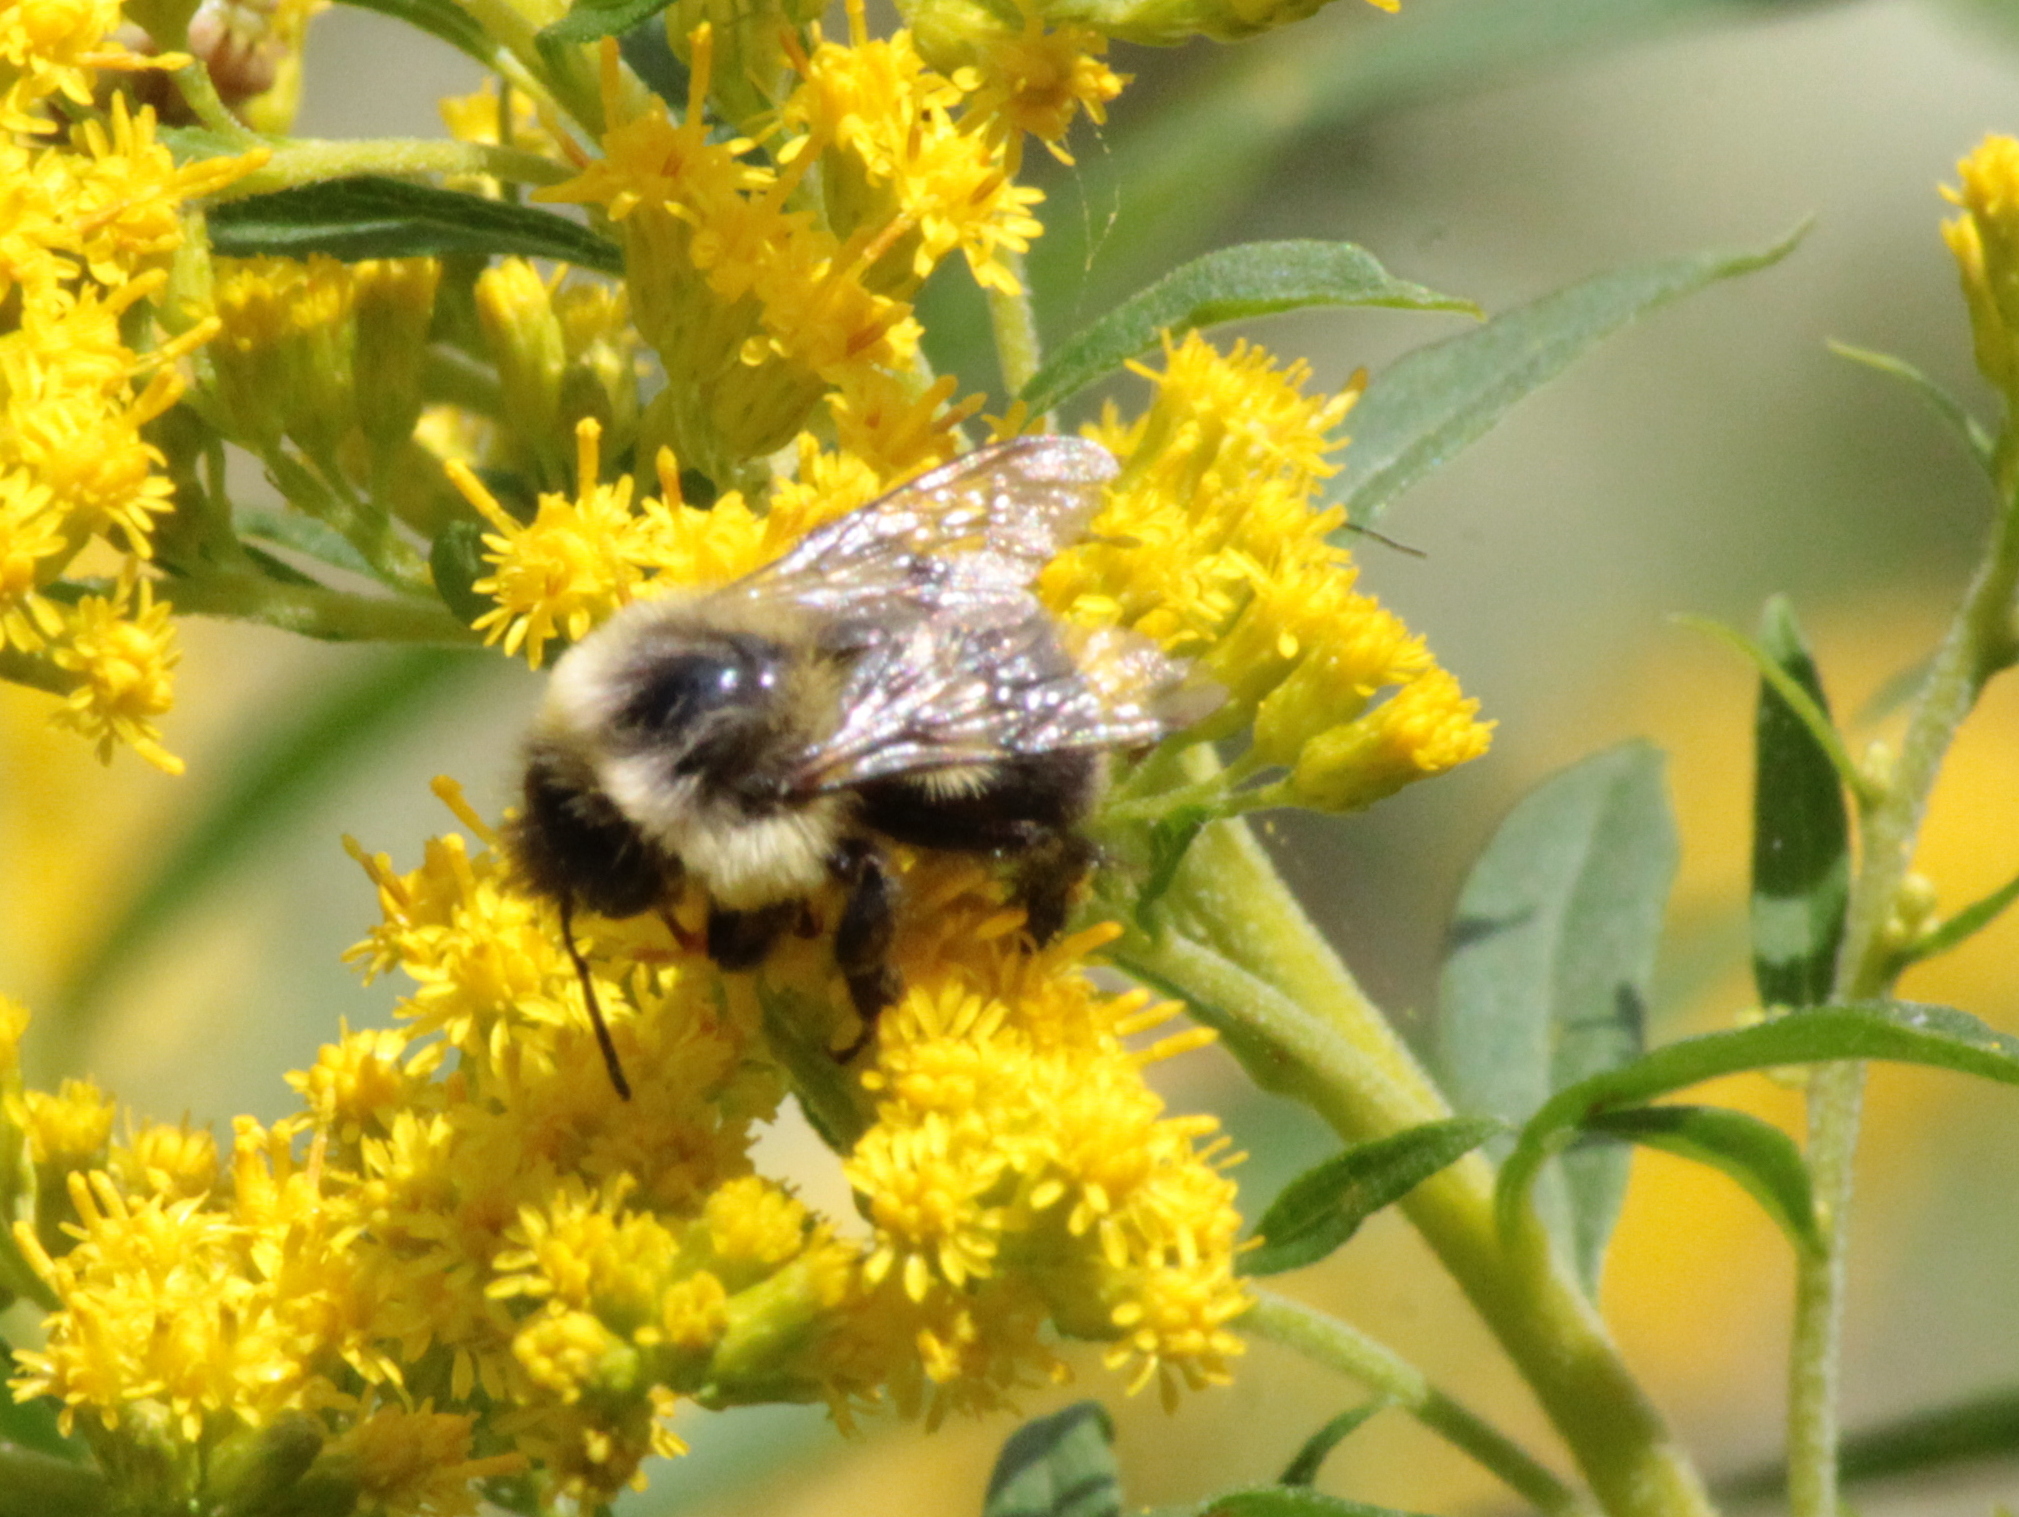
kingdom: Animalia
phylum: Arthropoda
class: Insecta
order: Hymenoptera
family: Apidae
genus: Bombus
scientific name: Bombus impatiens
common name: Common eastern bumble bee
